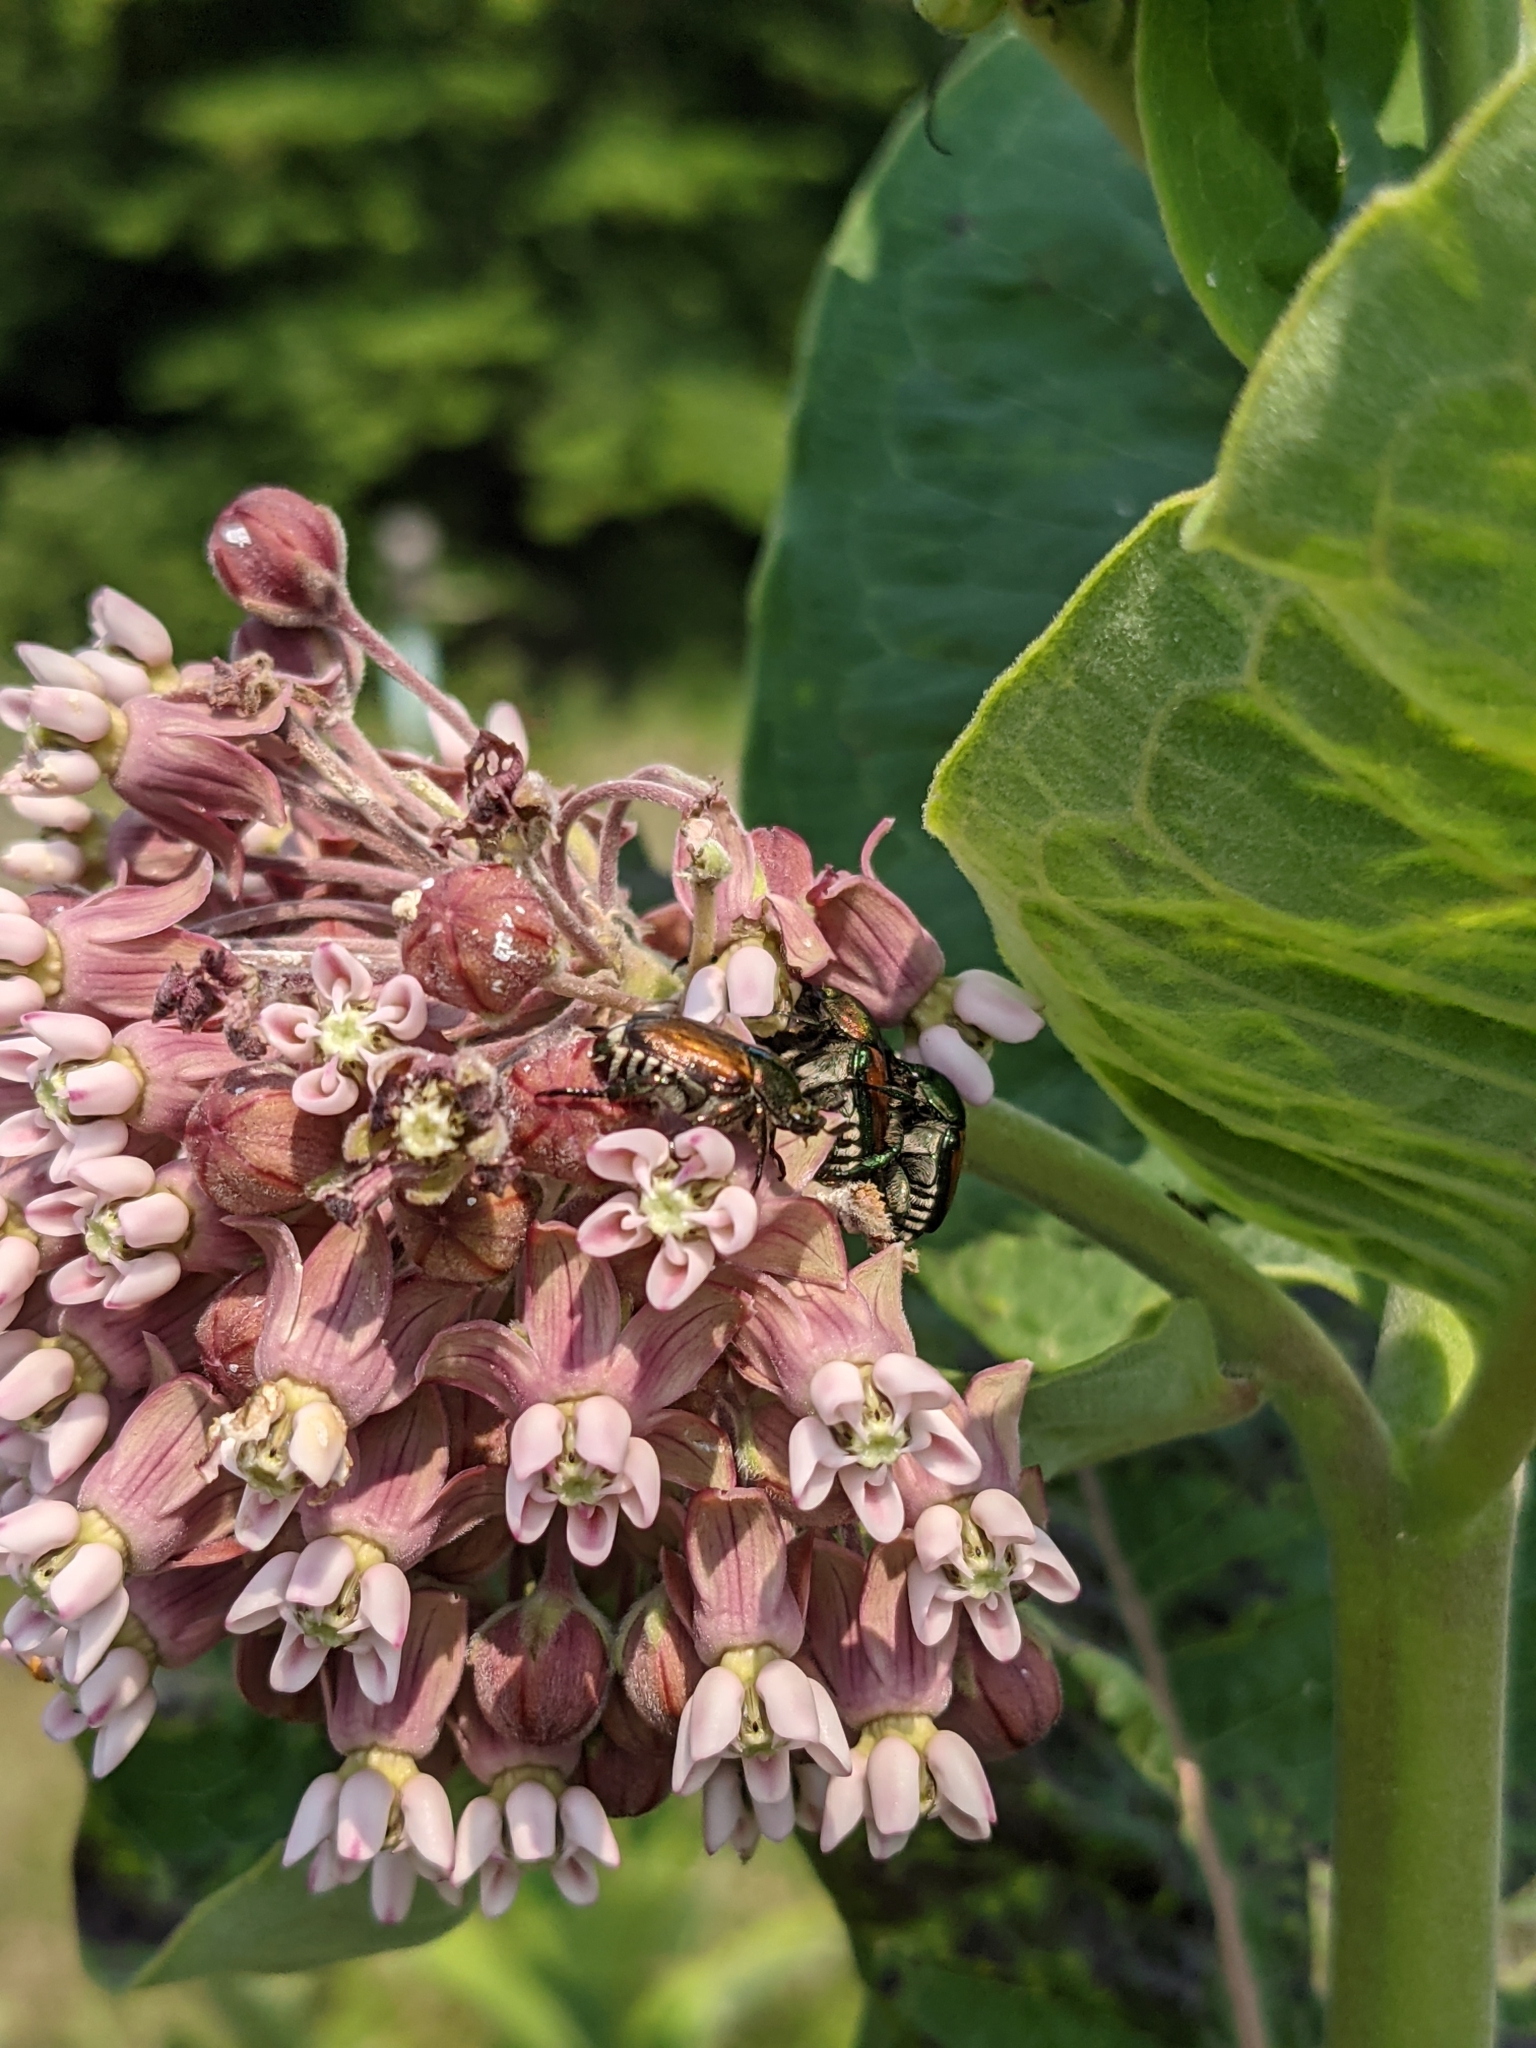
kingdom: Animalia
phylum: Arthropoda
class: Insecta
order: Coleoptera
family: Scarabaeidae
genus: Popillia
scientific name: Popillia japonica
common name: Japanese beetle
